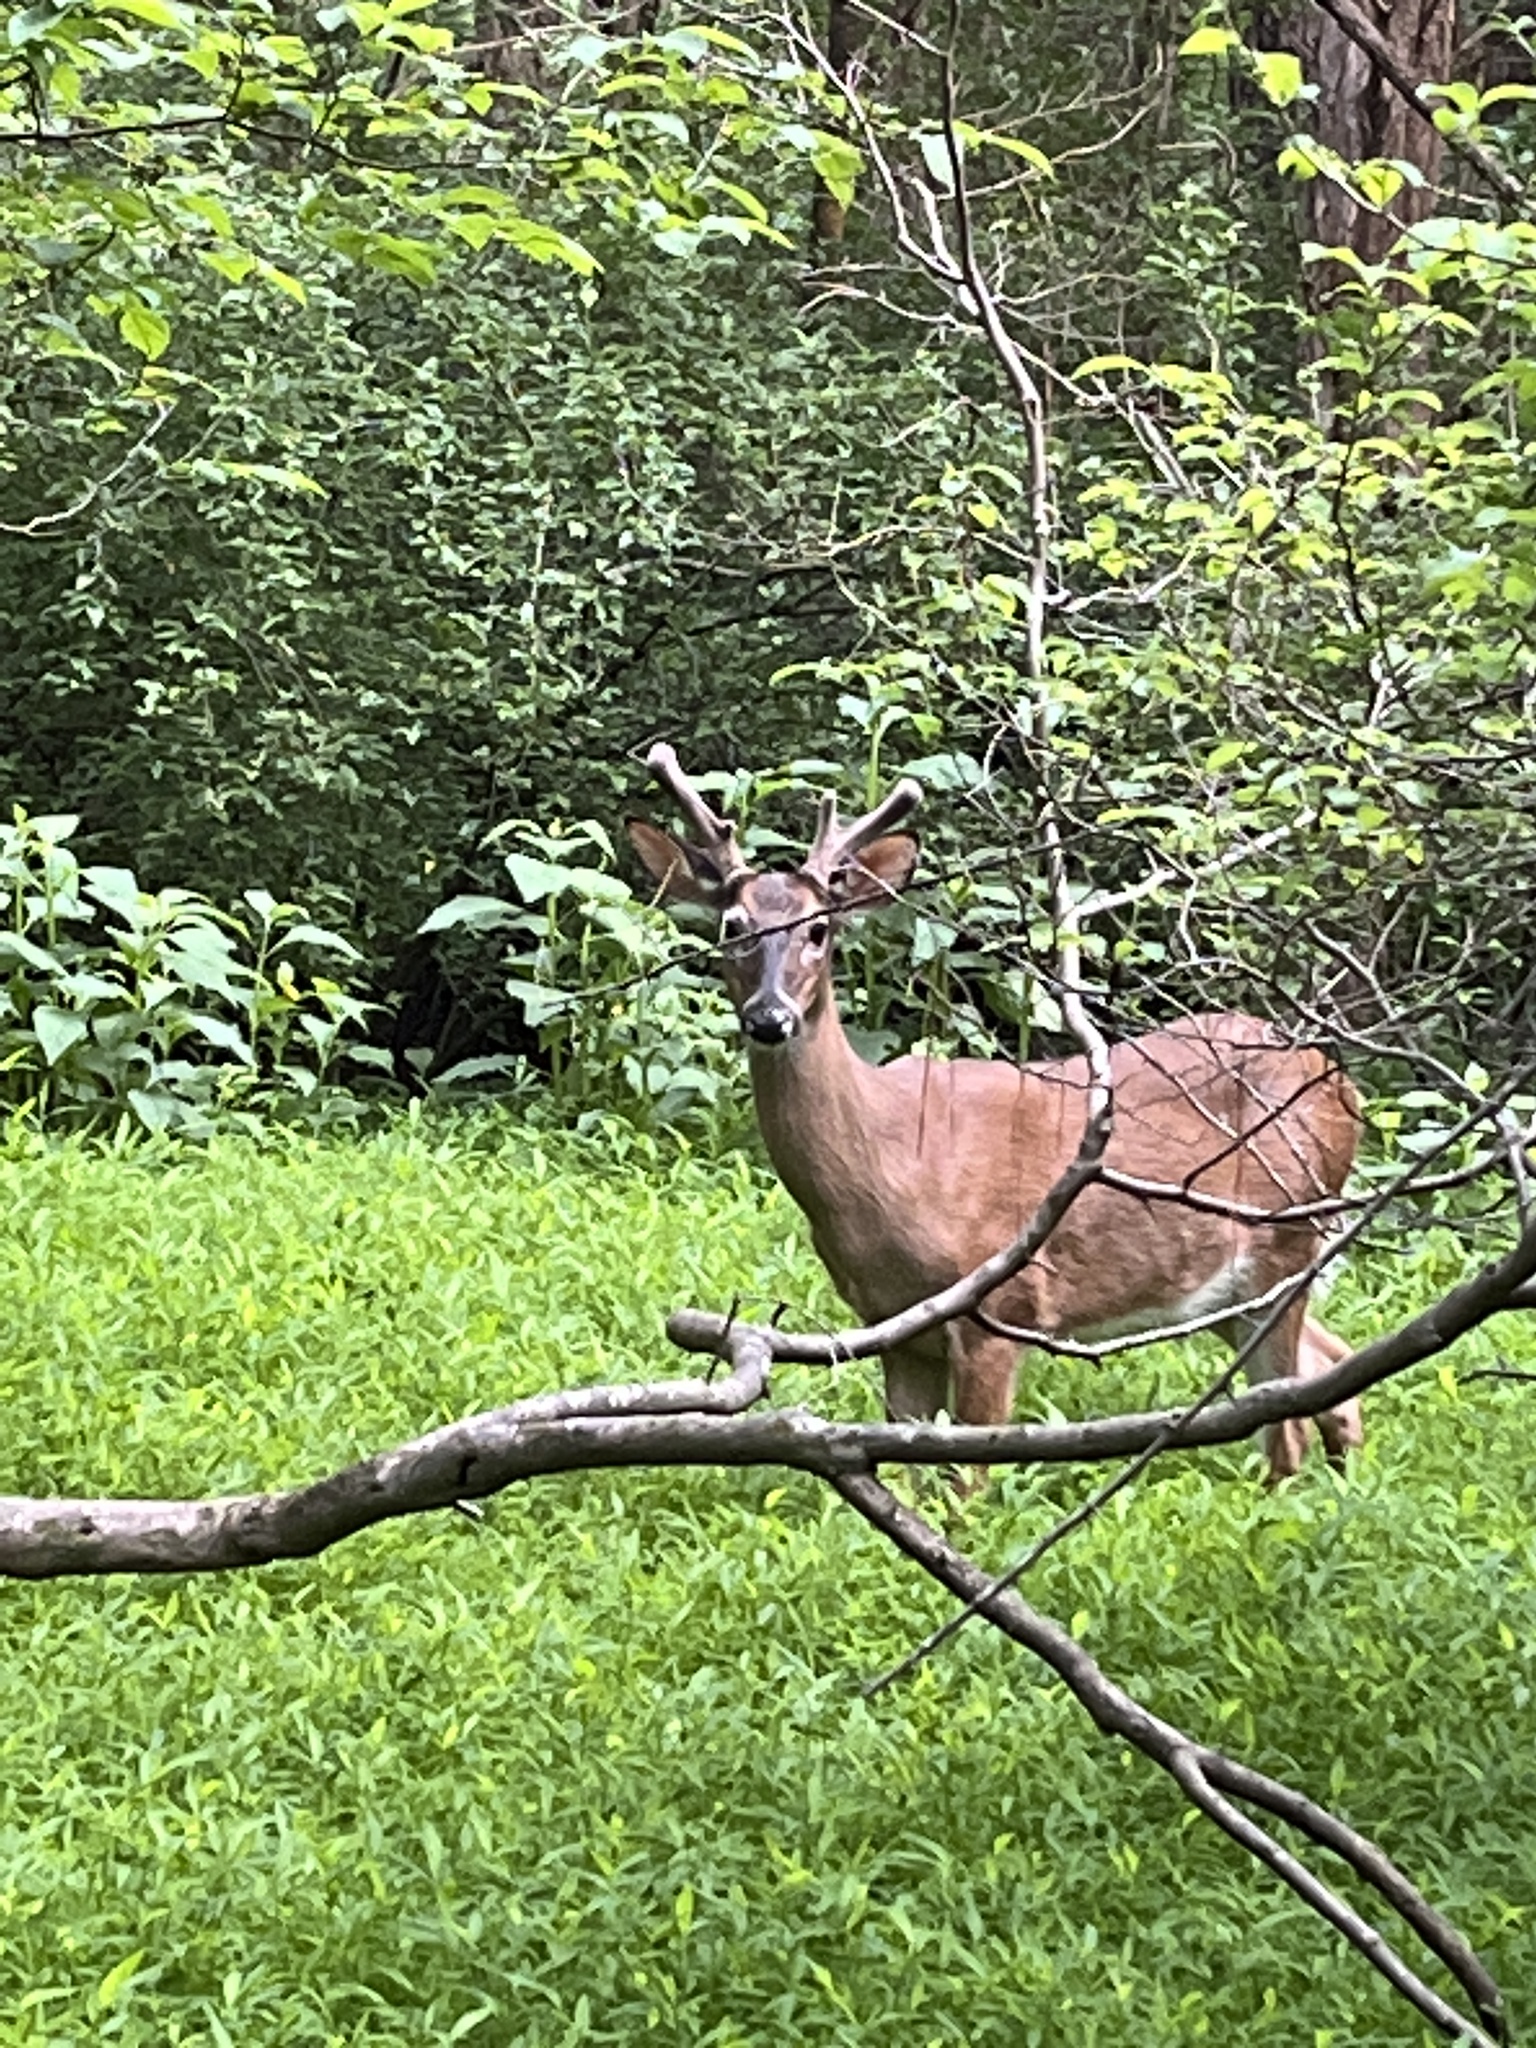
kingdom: Animalia
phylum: Chordata
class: Mammalia
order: Artiodactyla
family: Cervidae
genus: Odocoileus
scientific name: Odocoileus virginianus
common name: White-tailed deer
